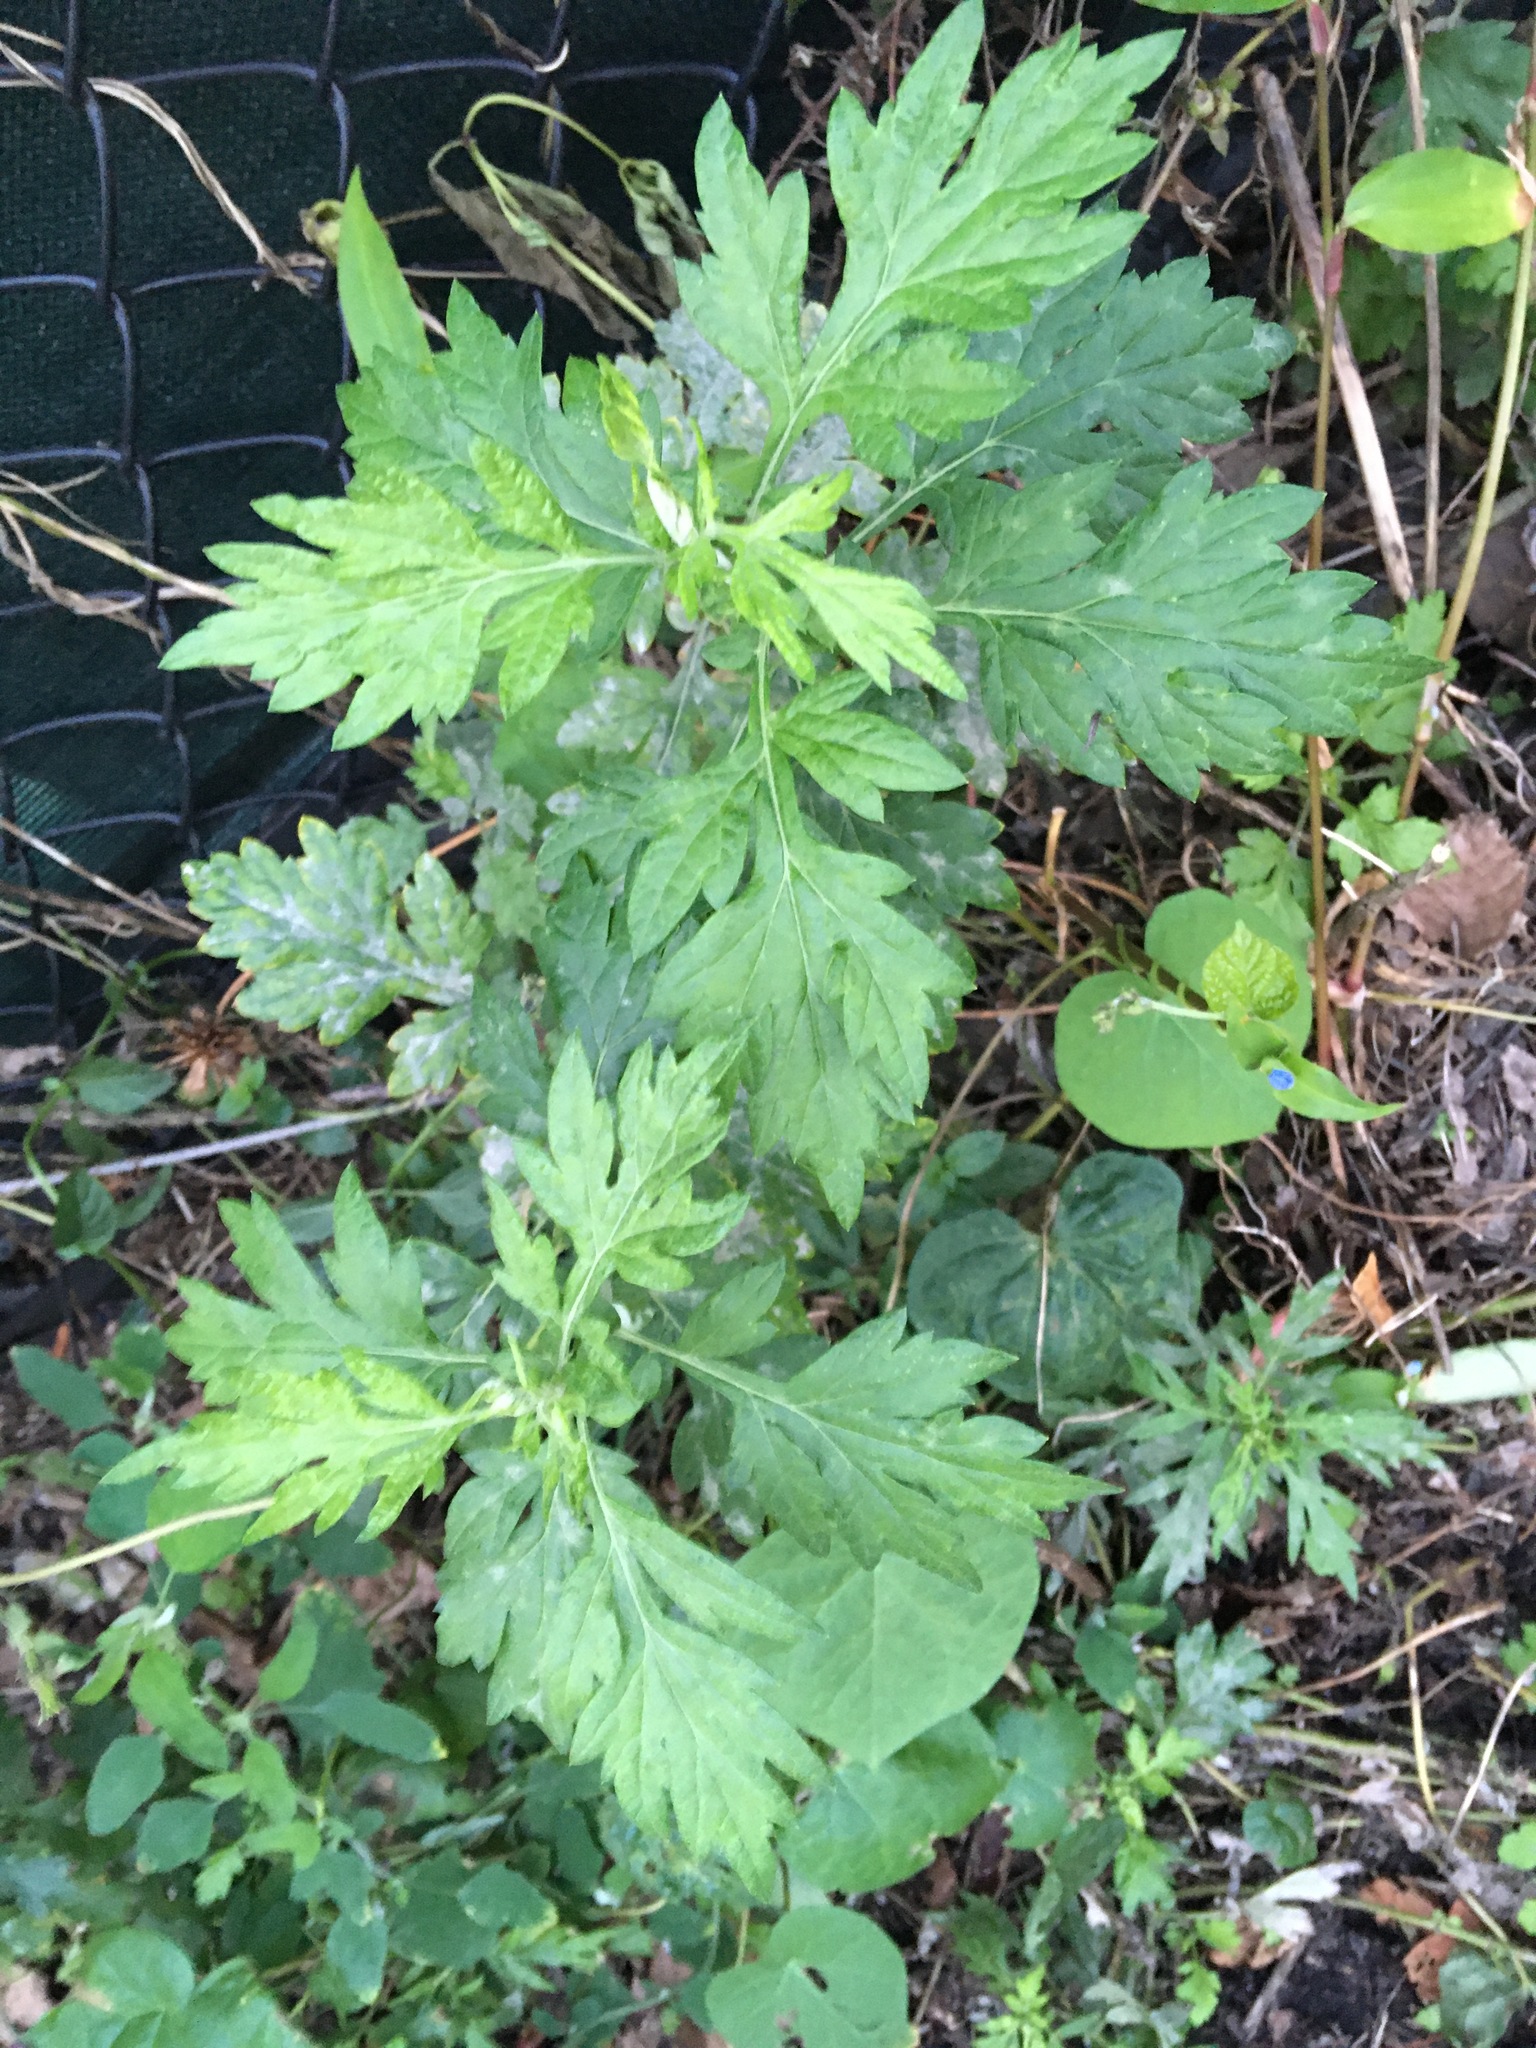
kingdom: Plantae
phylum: Tracheophyta
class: Magnoliopsida
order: Asterales
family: Asteraceae
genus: Artemisia
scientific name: Artemisia vulgaris
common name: Mugwort
